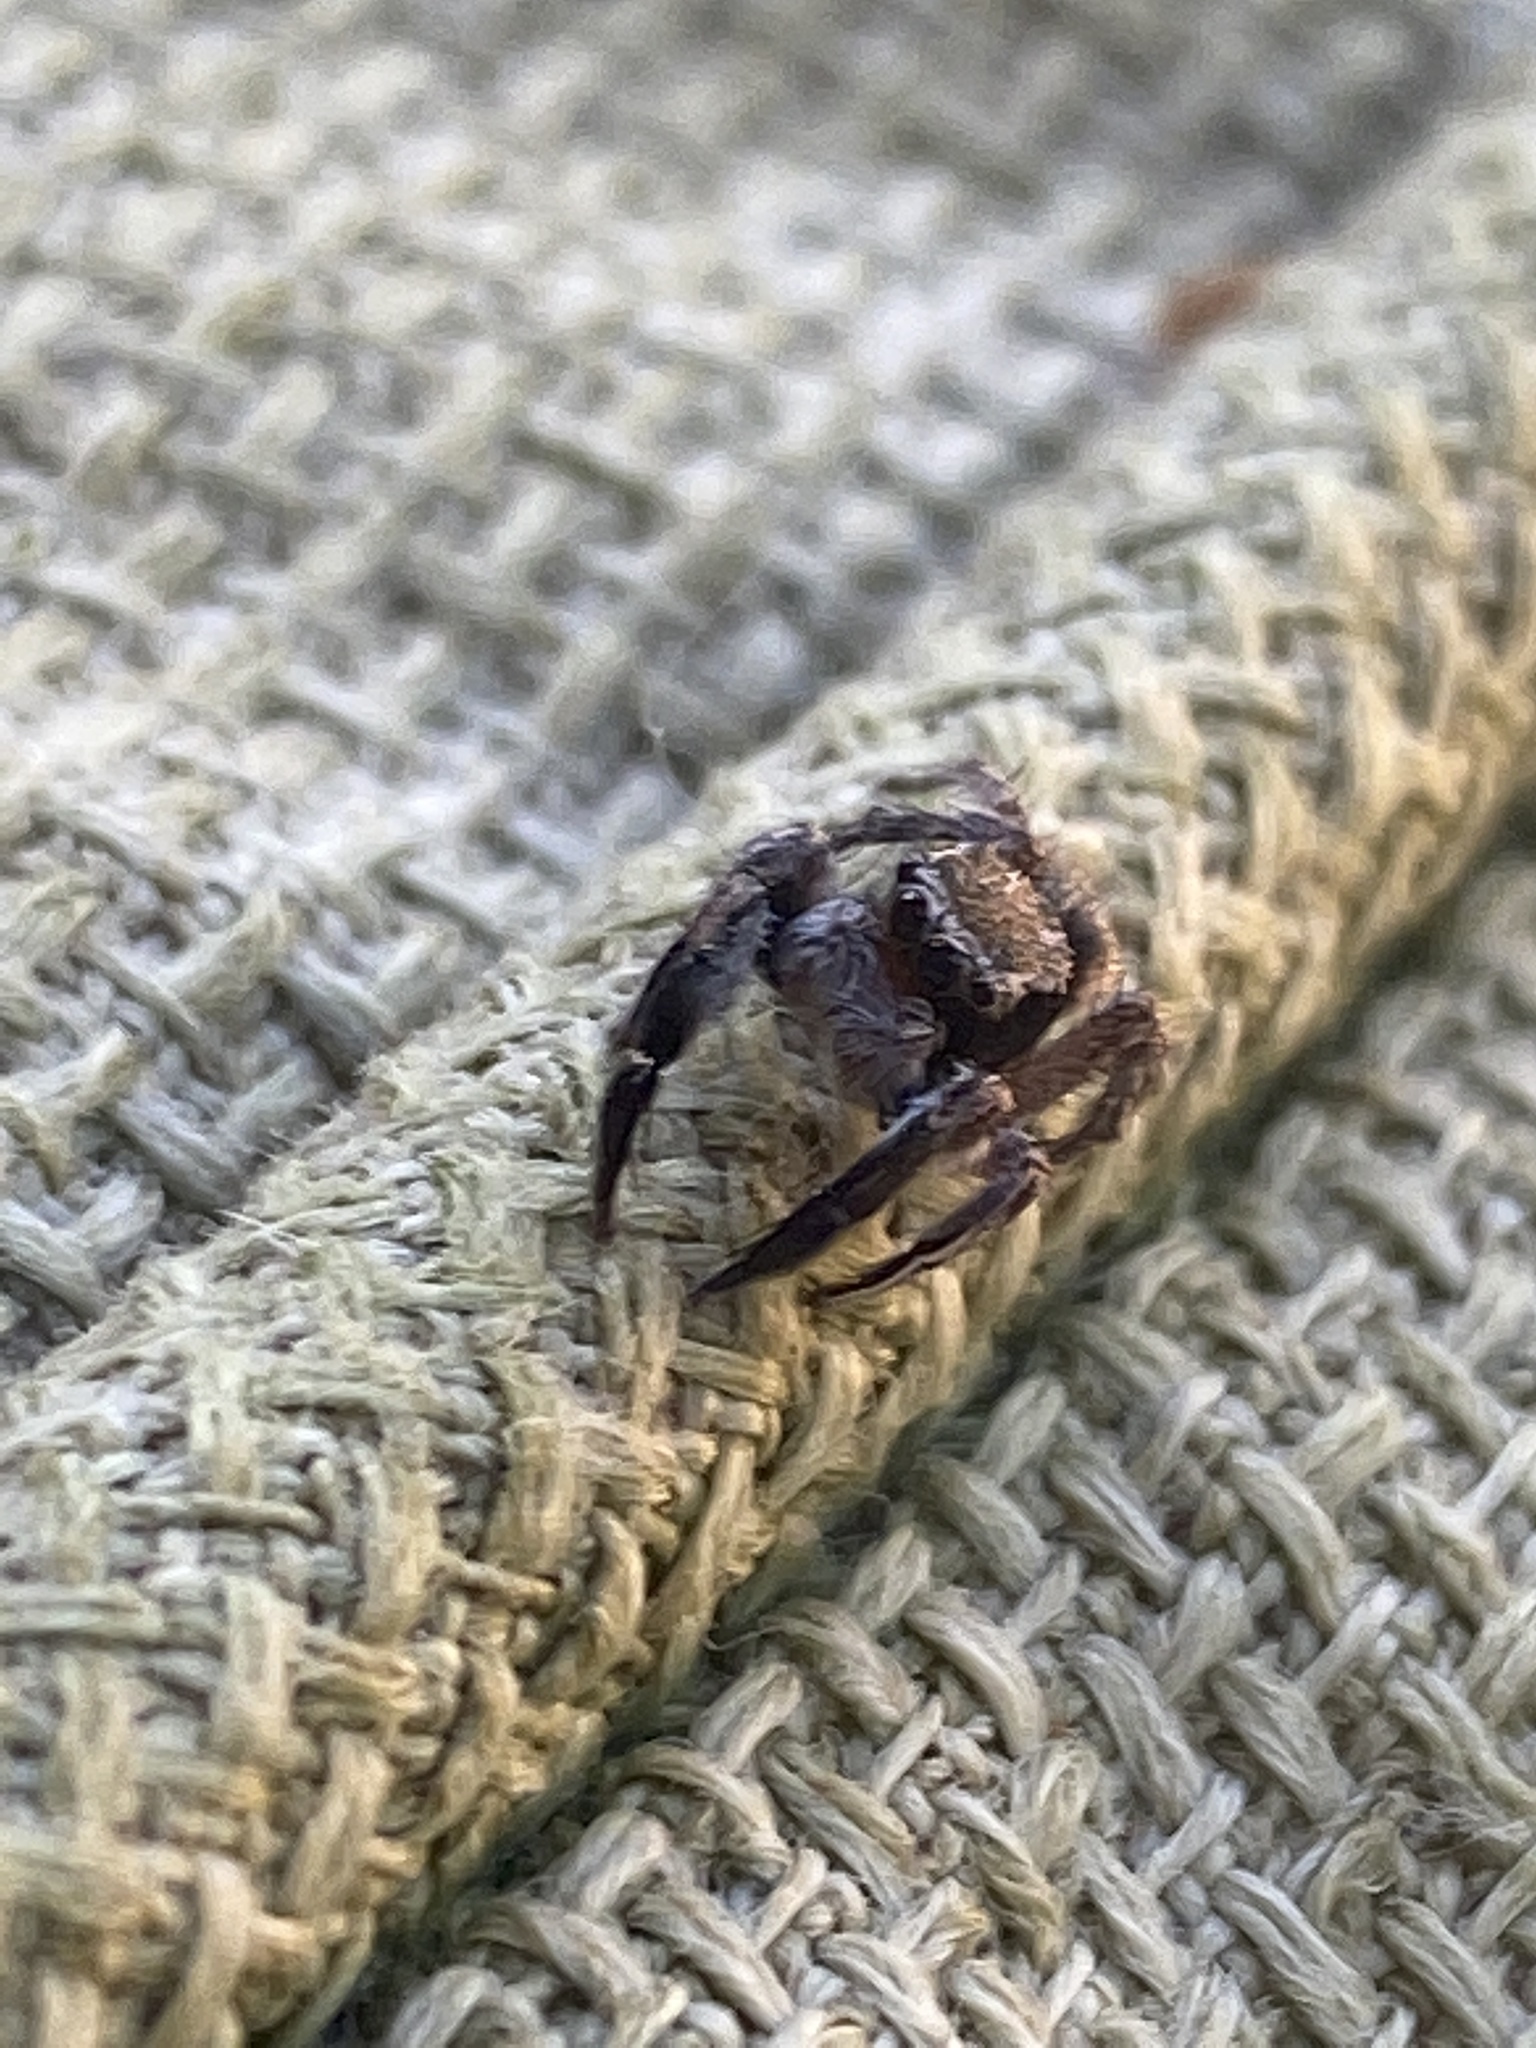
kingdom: Animalia
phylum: Arthropoda
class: Arachnida
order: Araneae
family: Salticidae
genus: Habronattus
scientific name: Habronattus hirsutus
